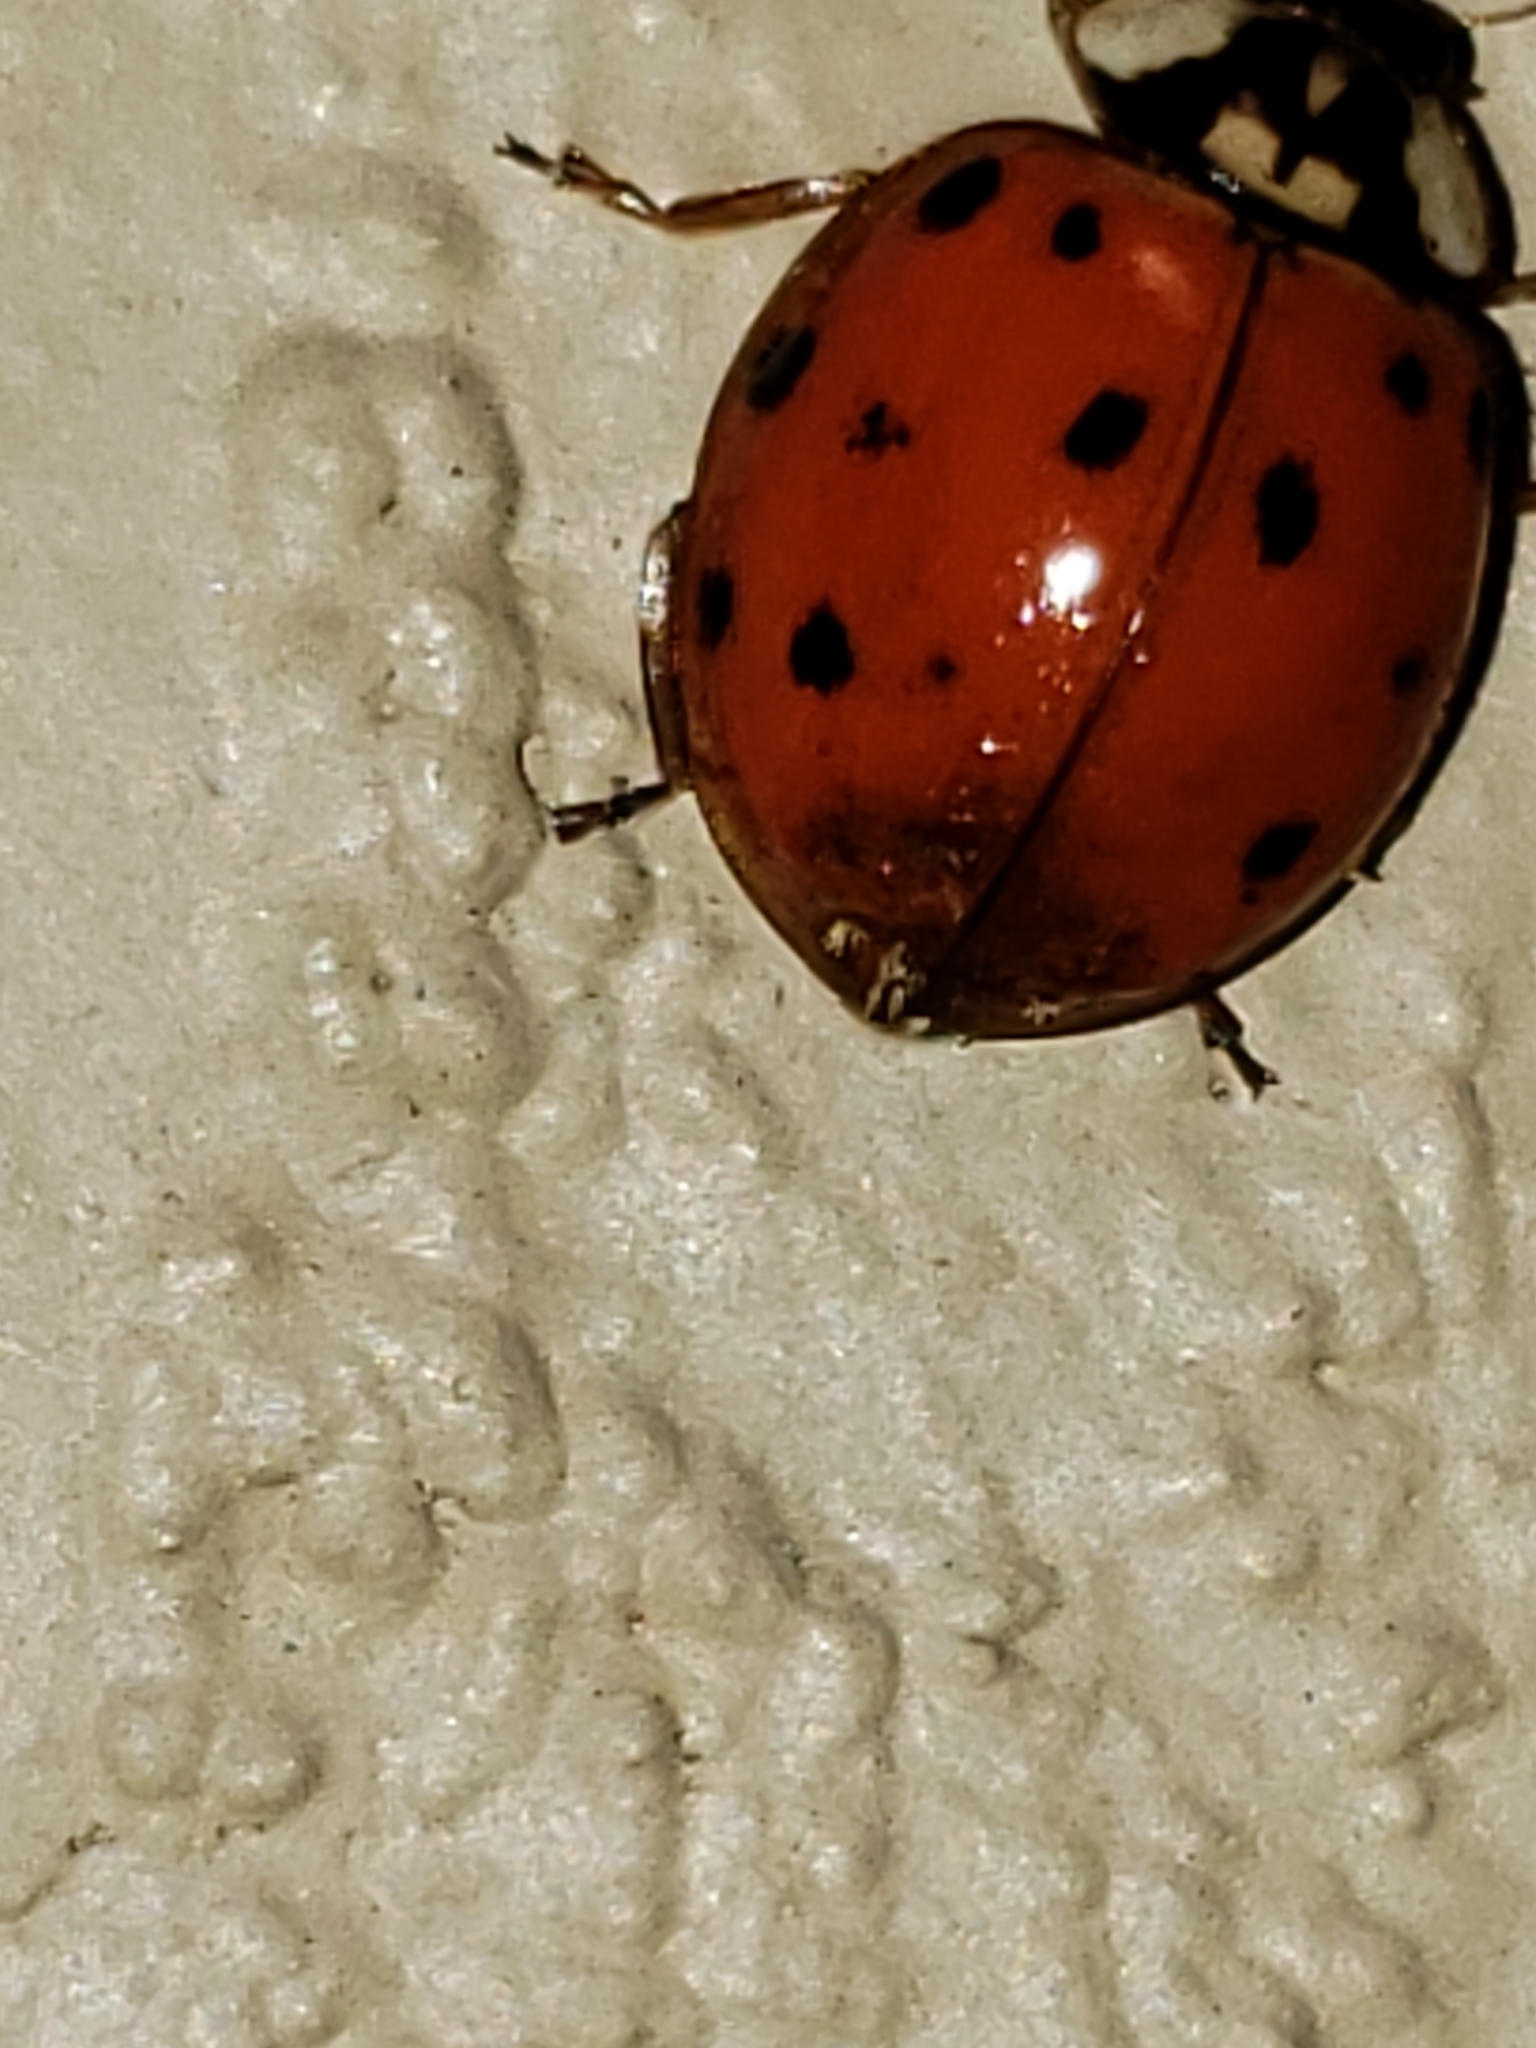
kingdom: Animalia
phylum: Arthropoda
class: Insecta
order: Coleoptera
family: Coccinellidae
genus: Harmonia
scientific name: Harmonia axyridis
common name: Harlequin ladybird
